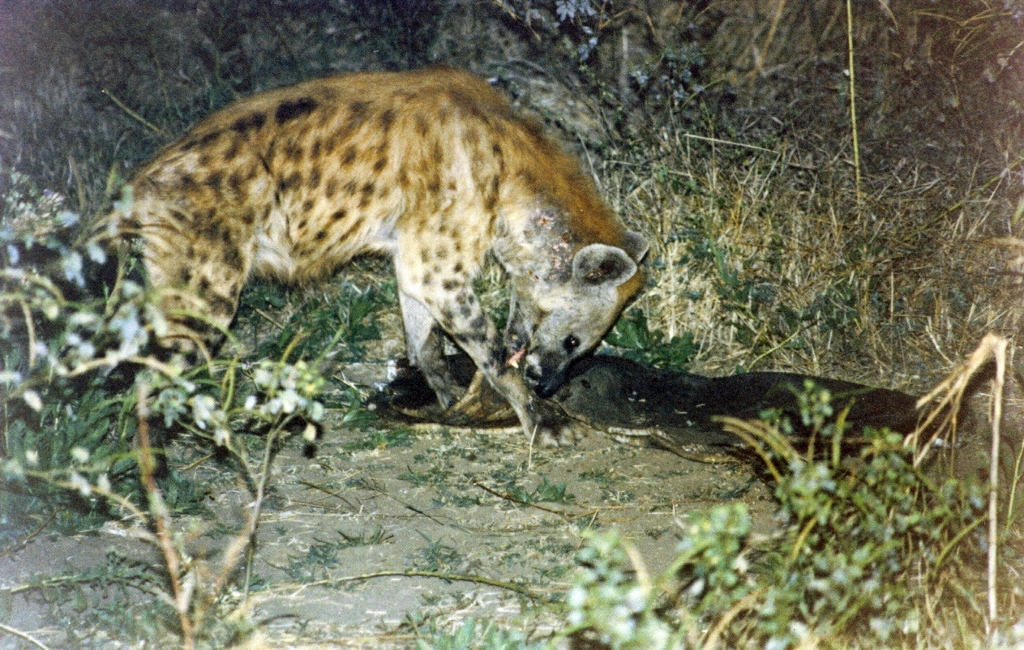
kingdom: Animalia
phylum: Chordata
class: Mammalia
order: Carnivora
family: Hyaenidae
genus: Crocuta
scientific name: Crocuta crocuta
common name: Spotted hyaena
